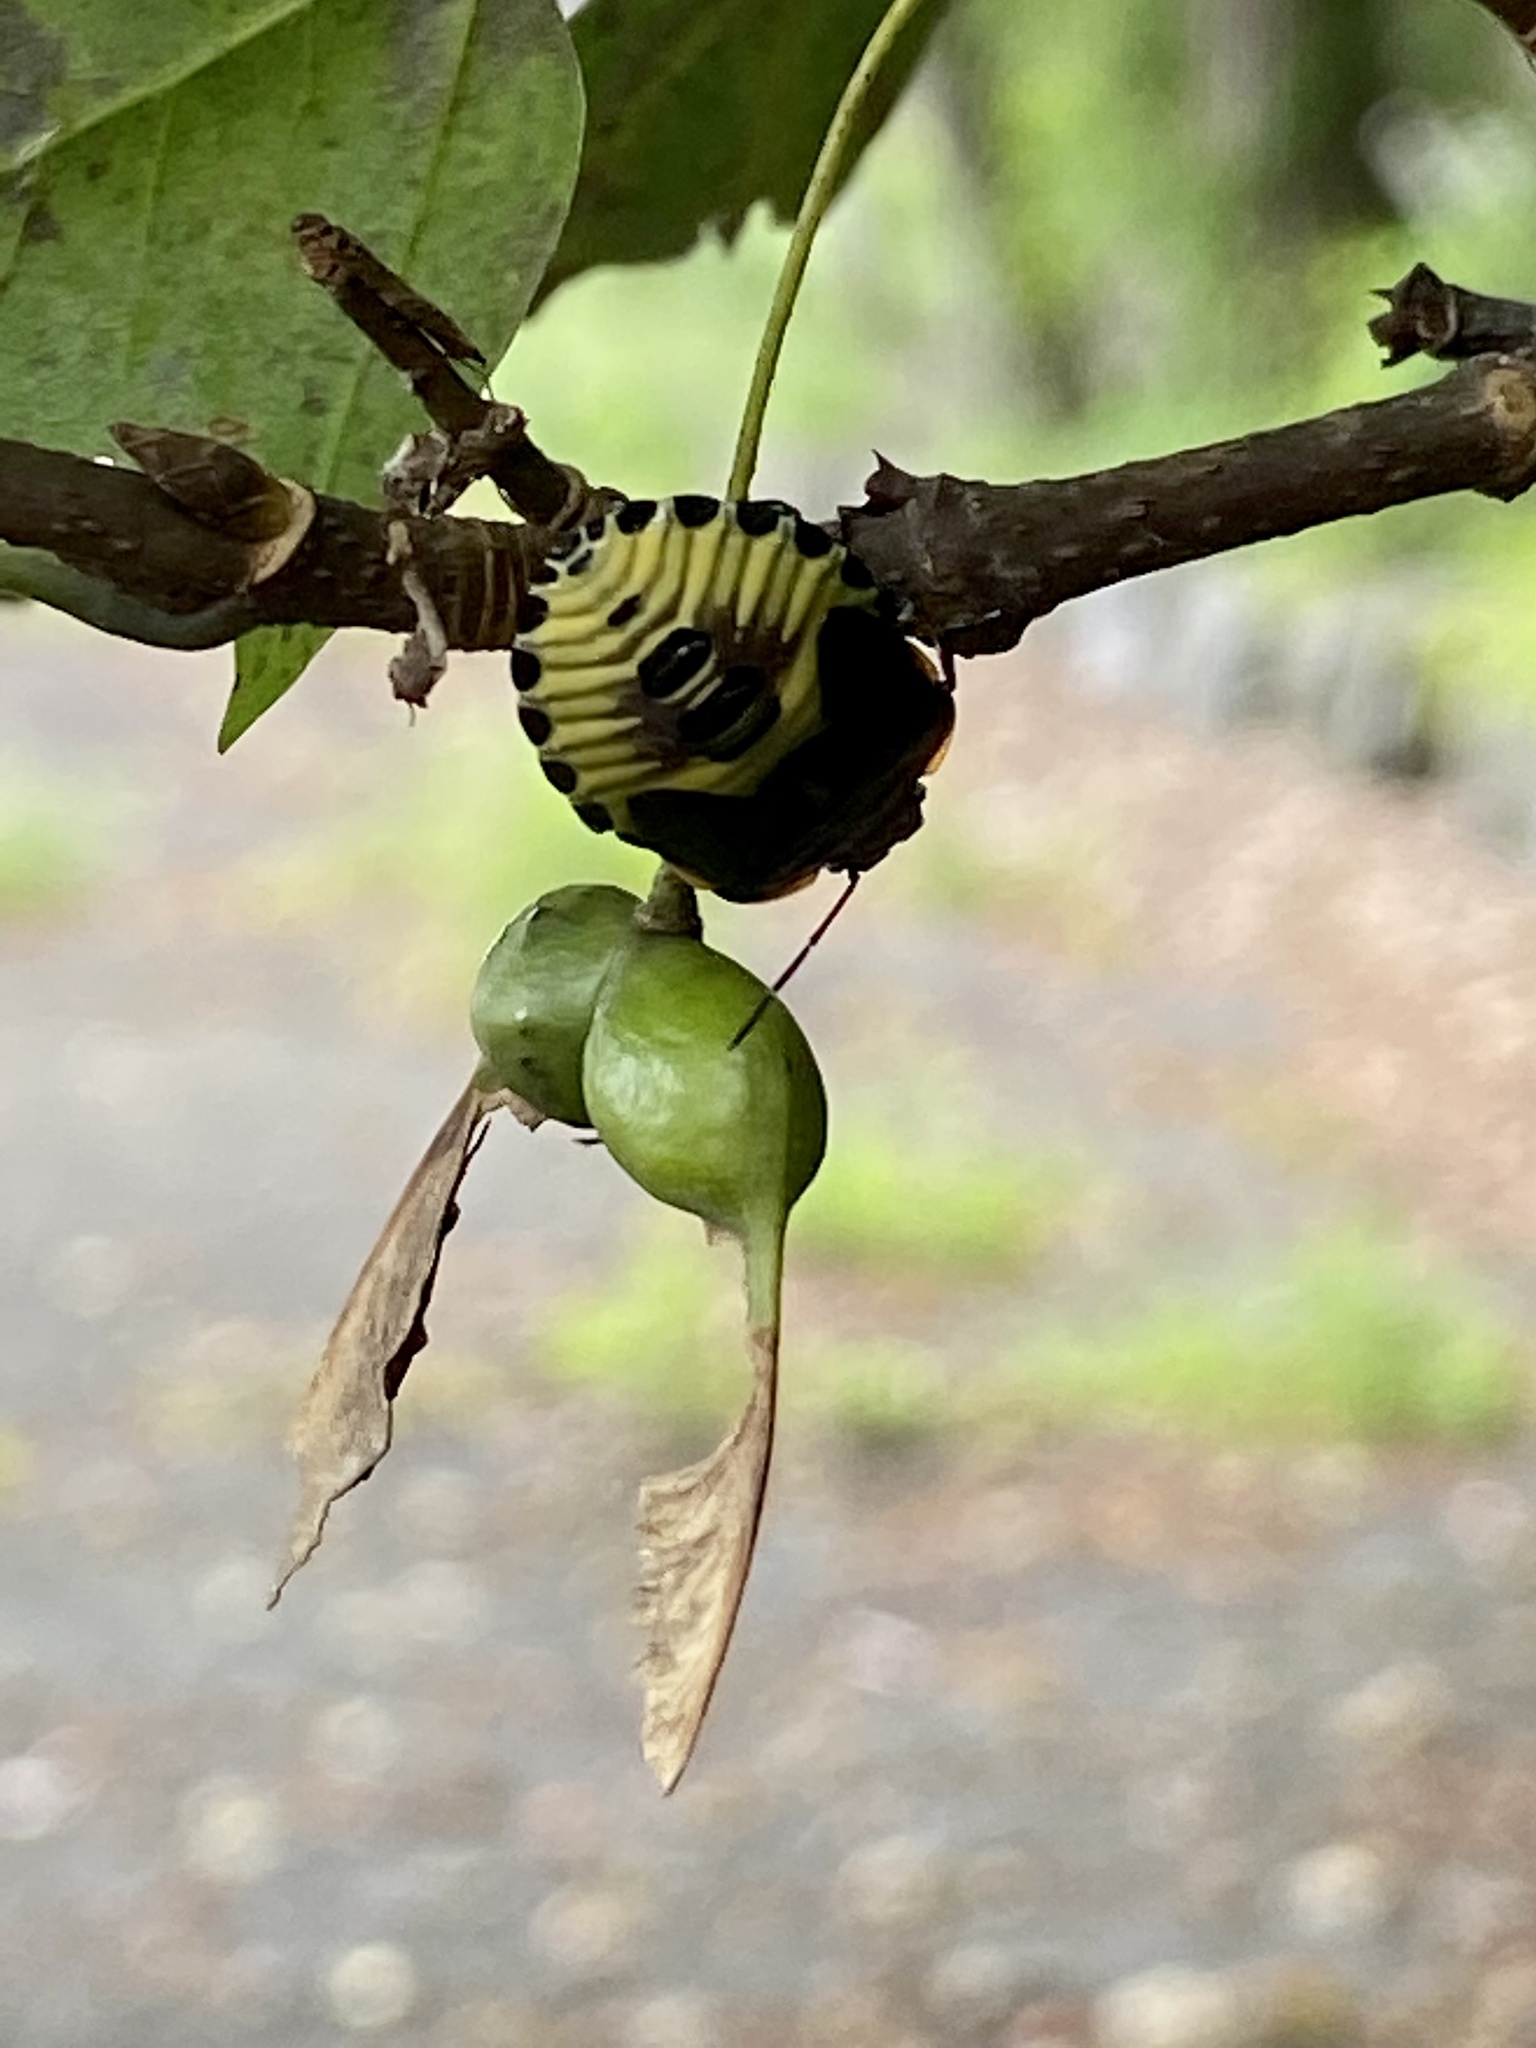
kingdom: Animalia
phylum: Arthropoda
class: Insecta
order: Hemiptera
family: Pentatomidae
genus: Chinavia
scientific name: Chinavia hilaris
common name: Green stink bug
